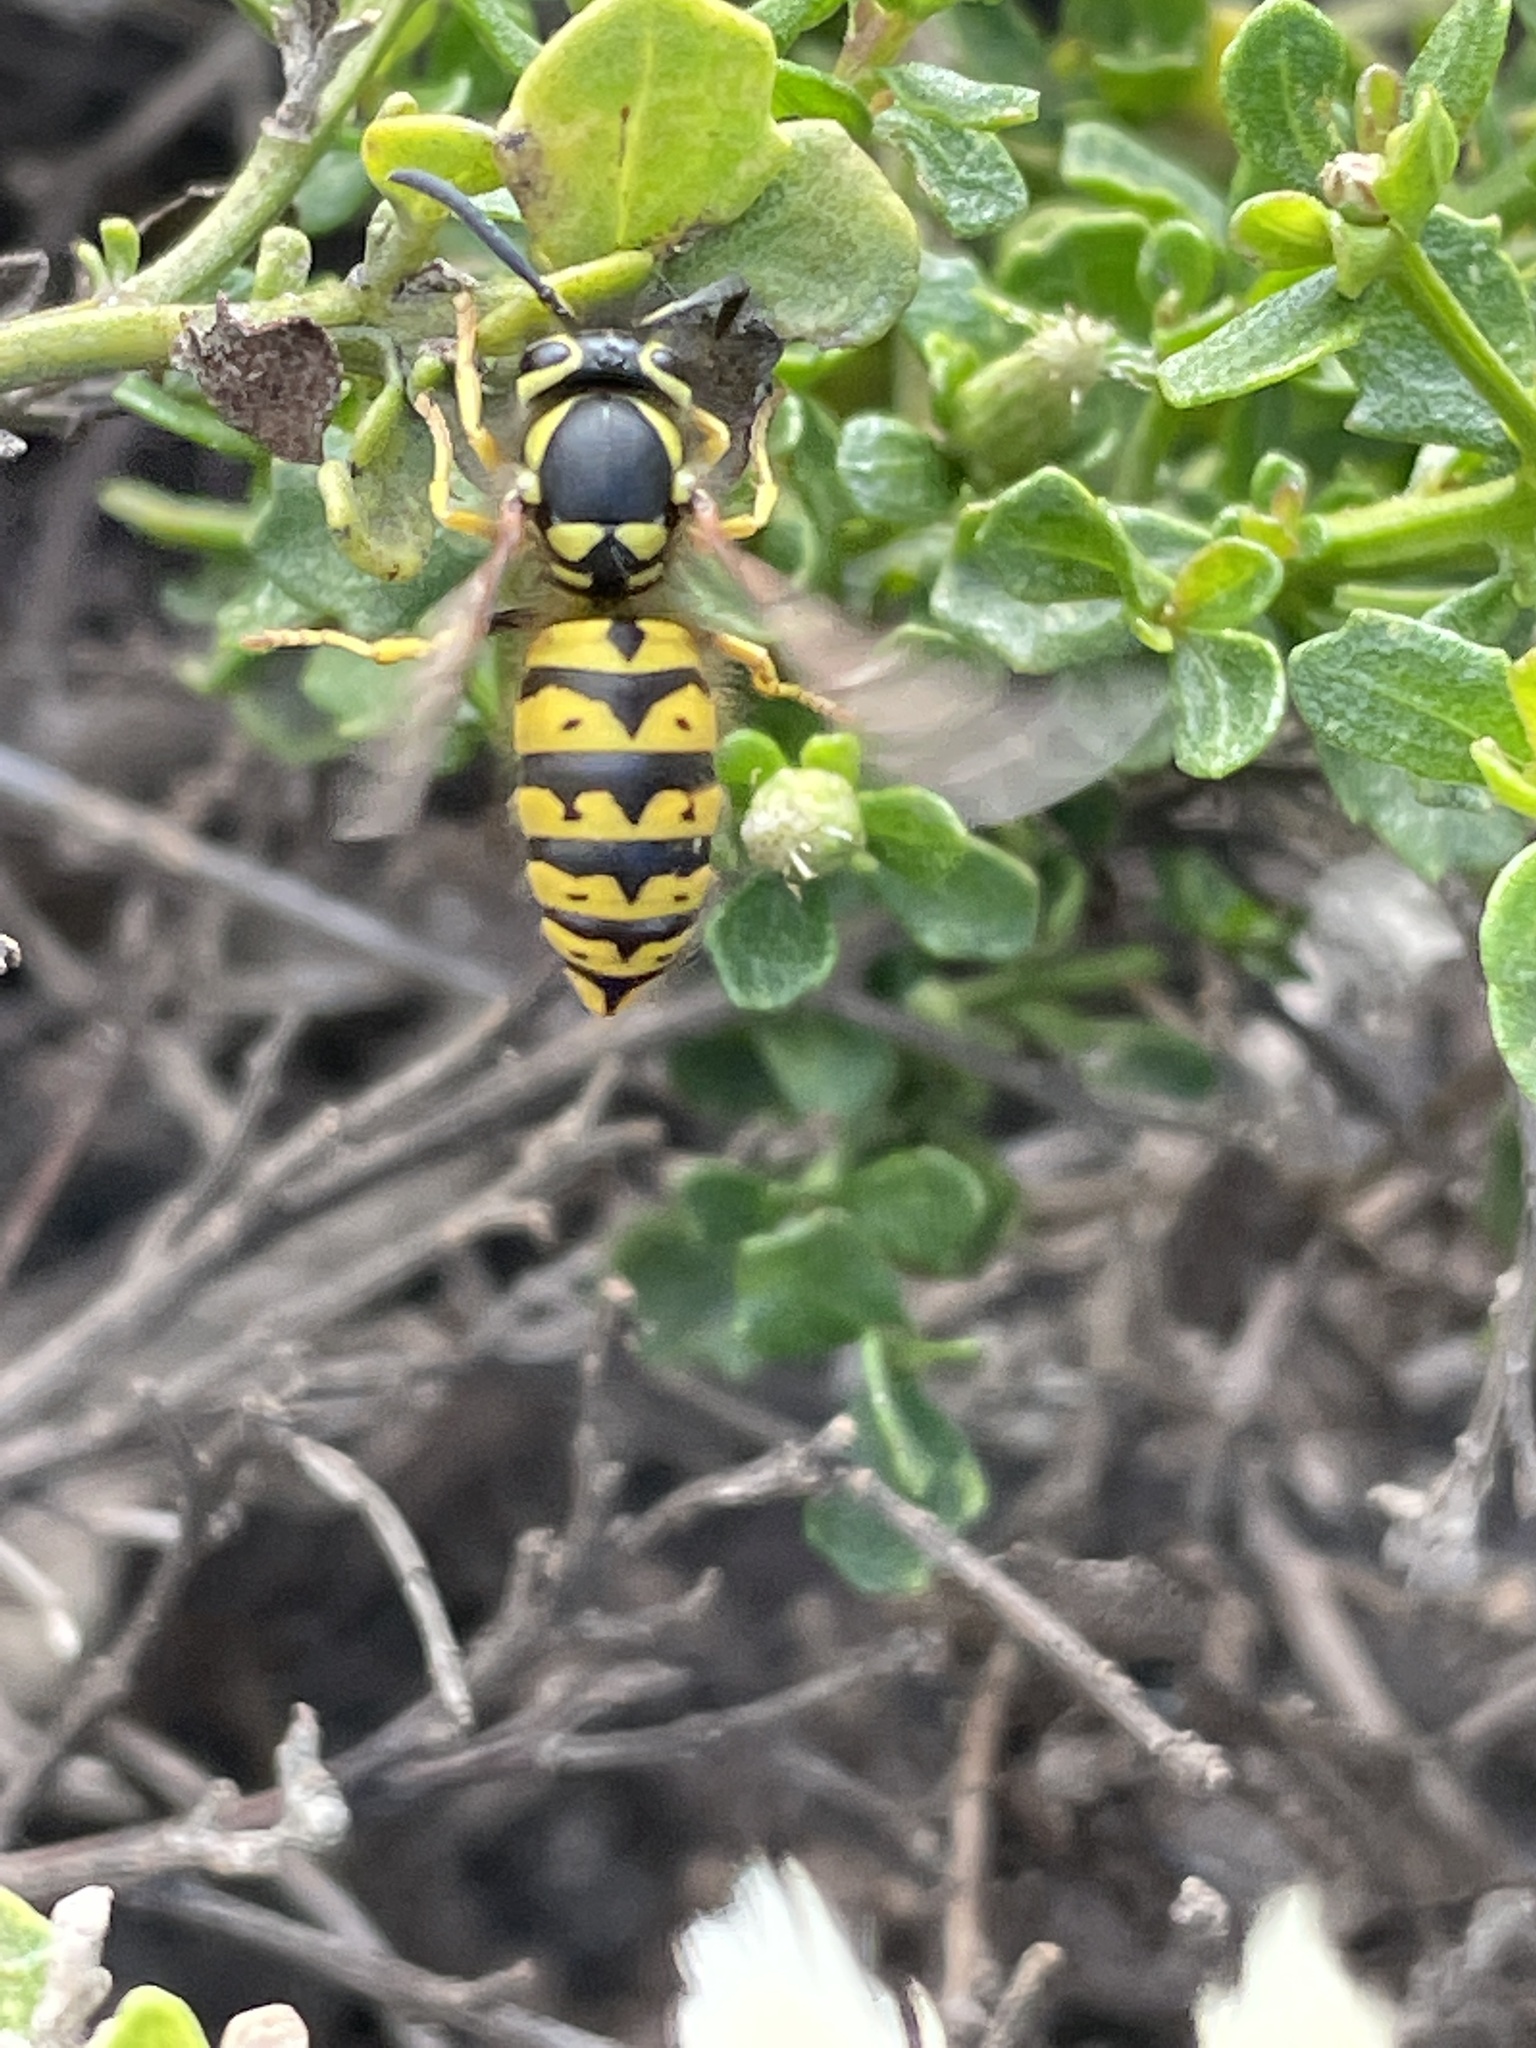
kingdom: Animalia
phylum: Arthropoda
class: Insecta
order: Hymenoptera
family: Vespidae
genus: Vespula
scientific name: Vespula pensylvanica
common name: Western yellowjacket
